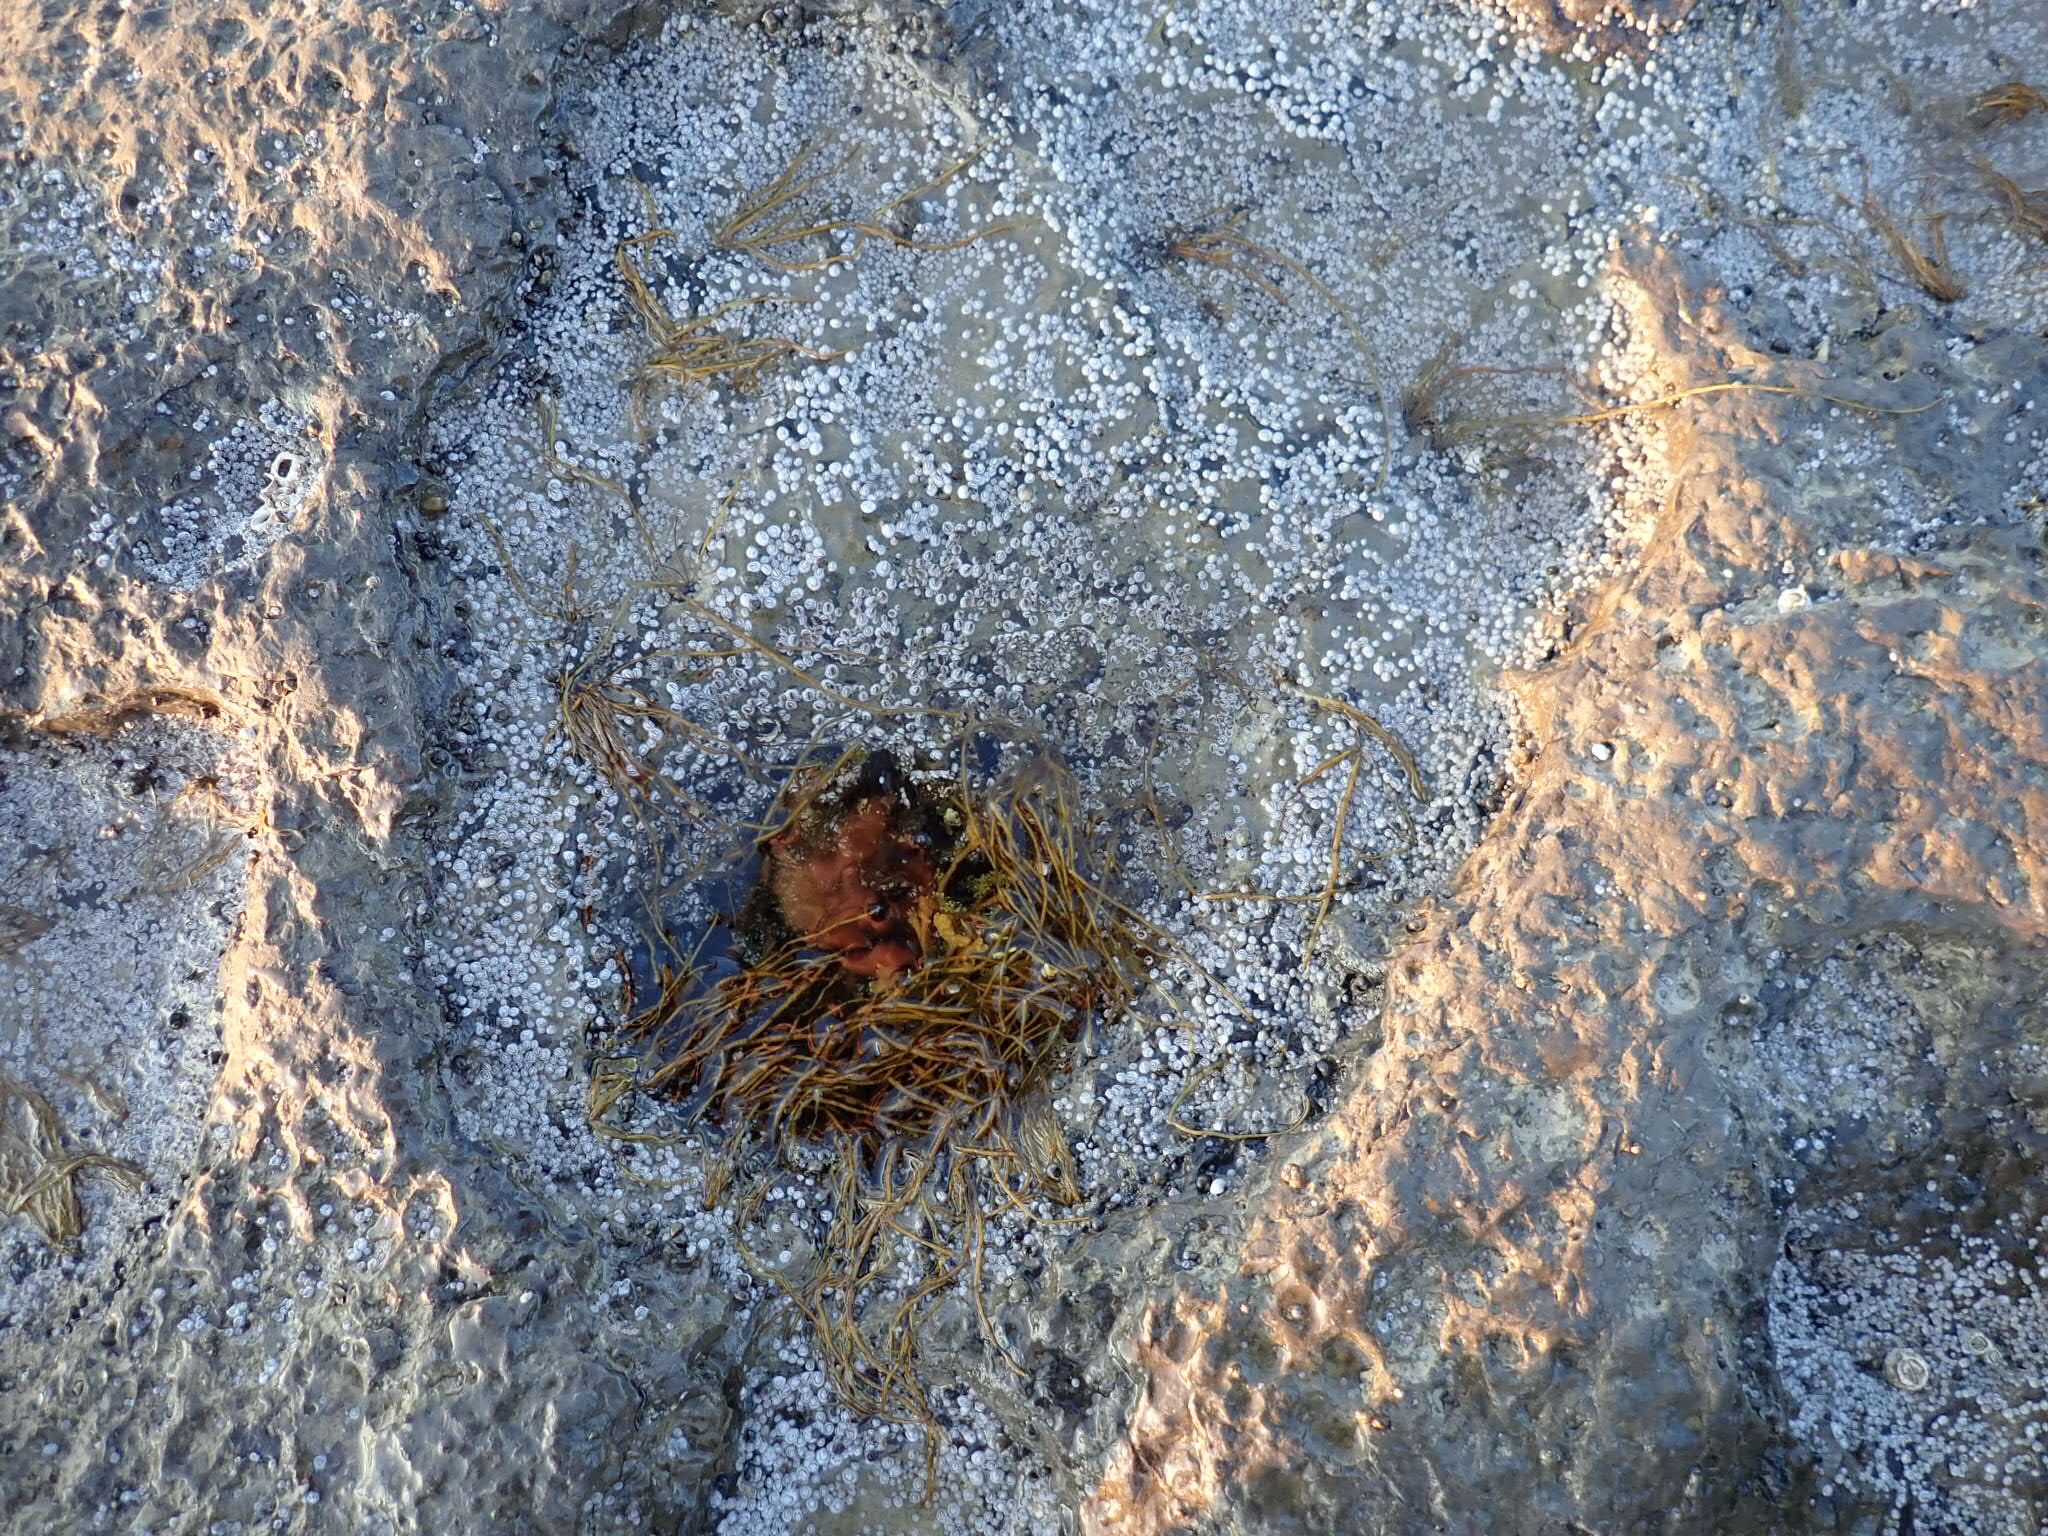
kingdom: Animalia
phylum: Arthropoda
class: Maxillopoda
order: Sessilia
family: Archaeobalanidae
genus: Semibalanus
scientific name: Semibalanus balanoides
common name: Acorn barnacle
